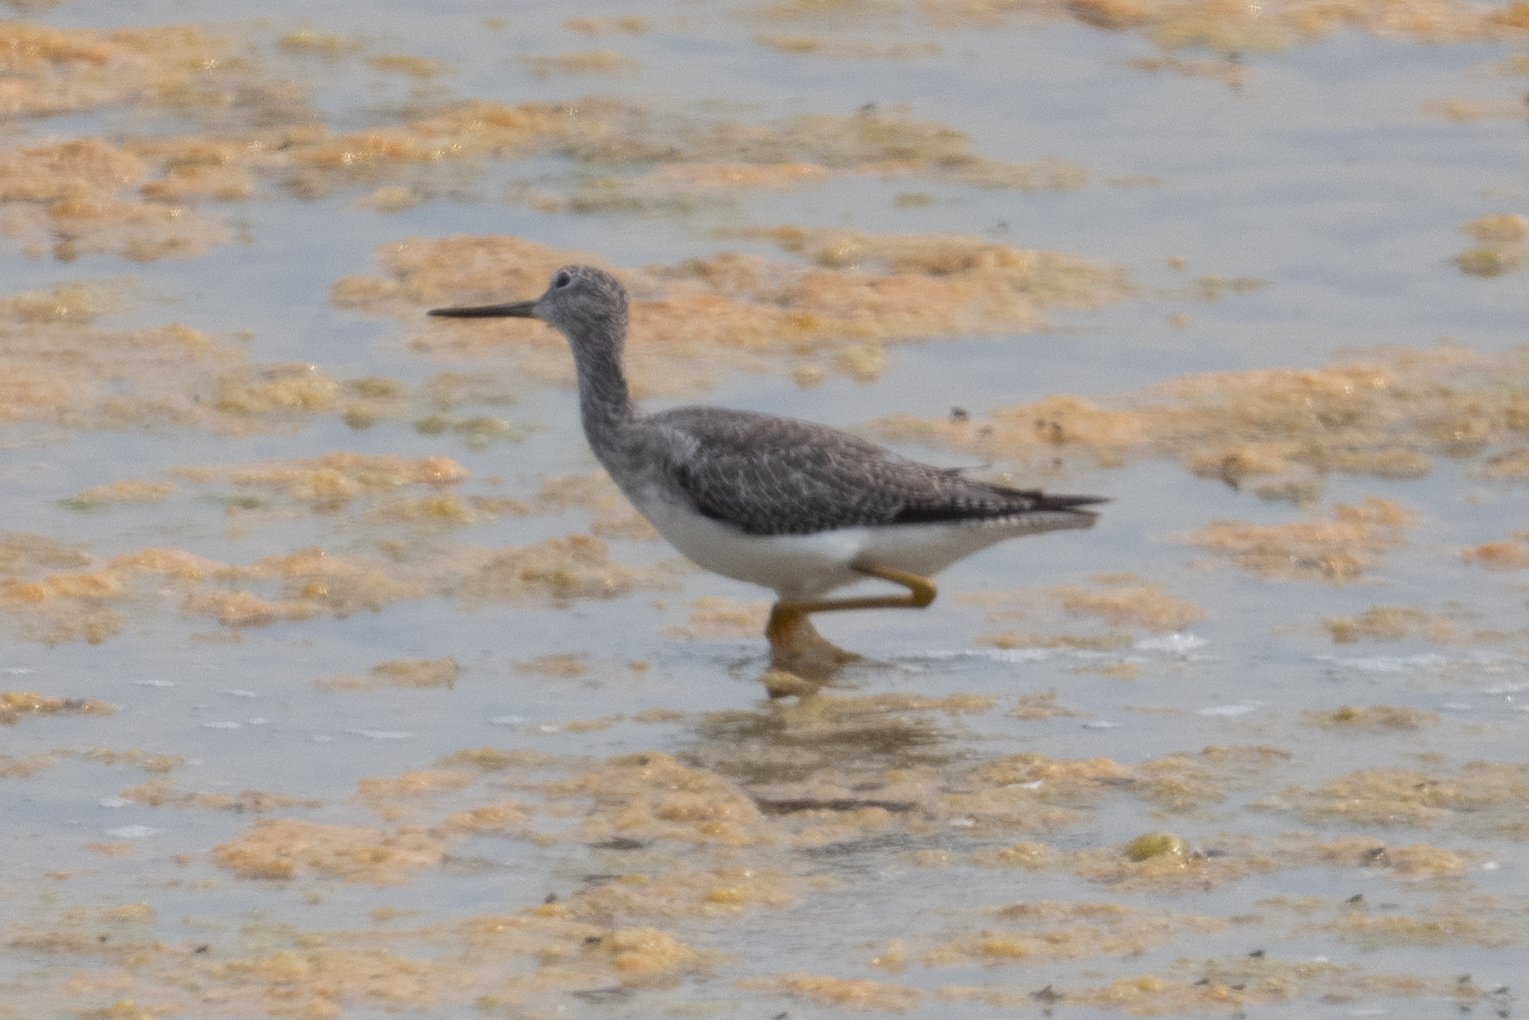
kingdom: Animalia
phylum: Chordata
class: Aves
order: Charadriiformes
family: Scolopacidae
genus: Tringa
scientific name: Tringa melanoleuca
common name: Greater yellowlegs
